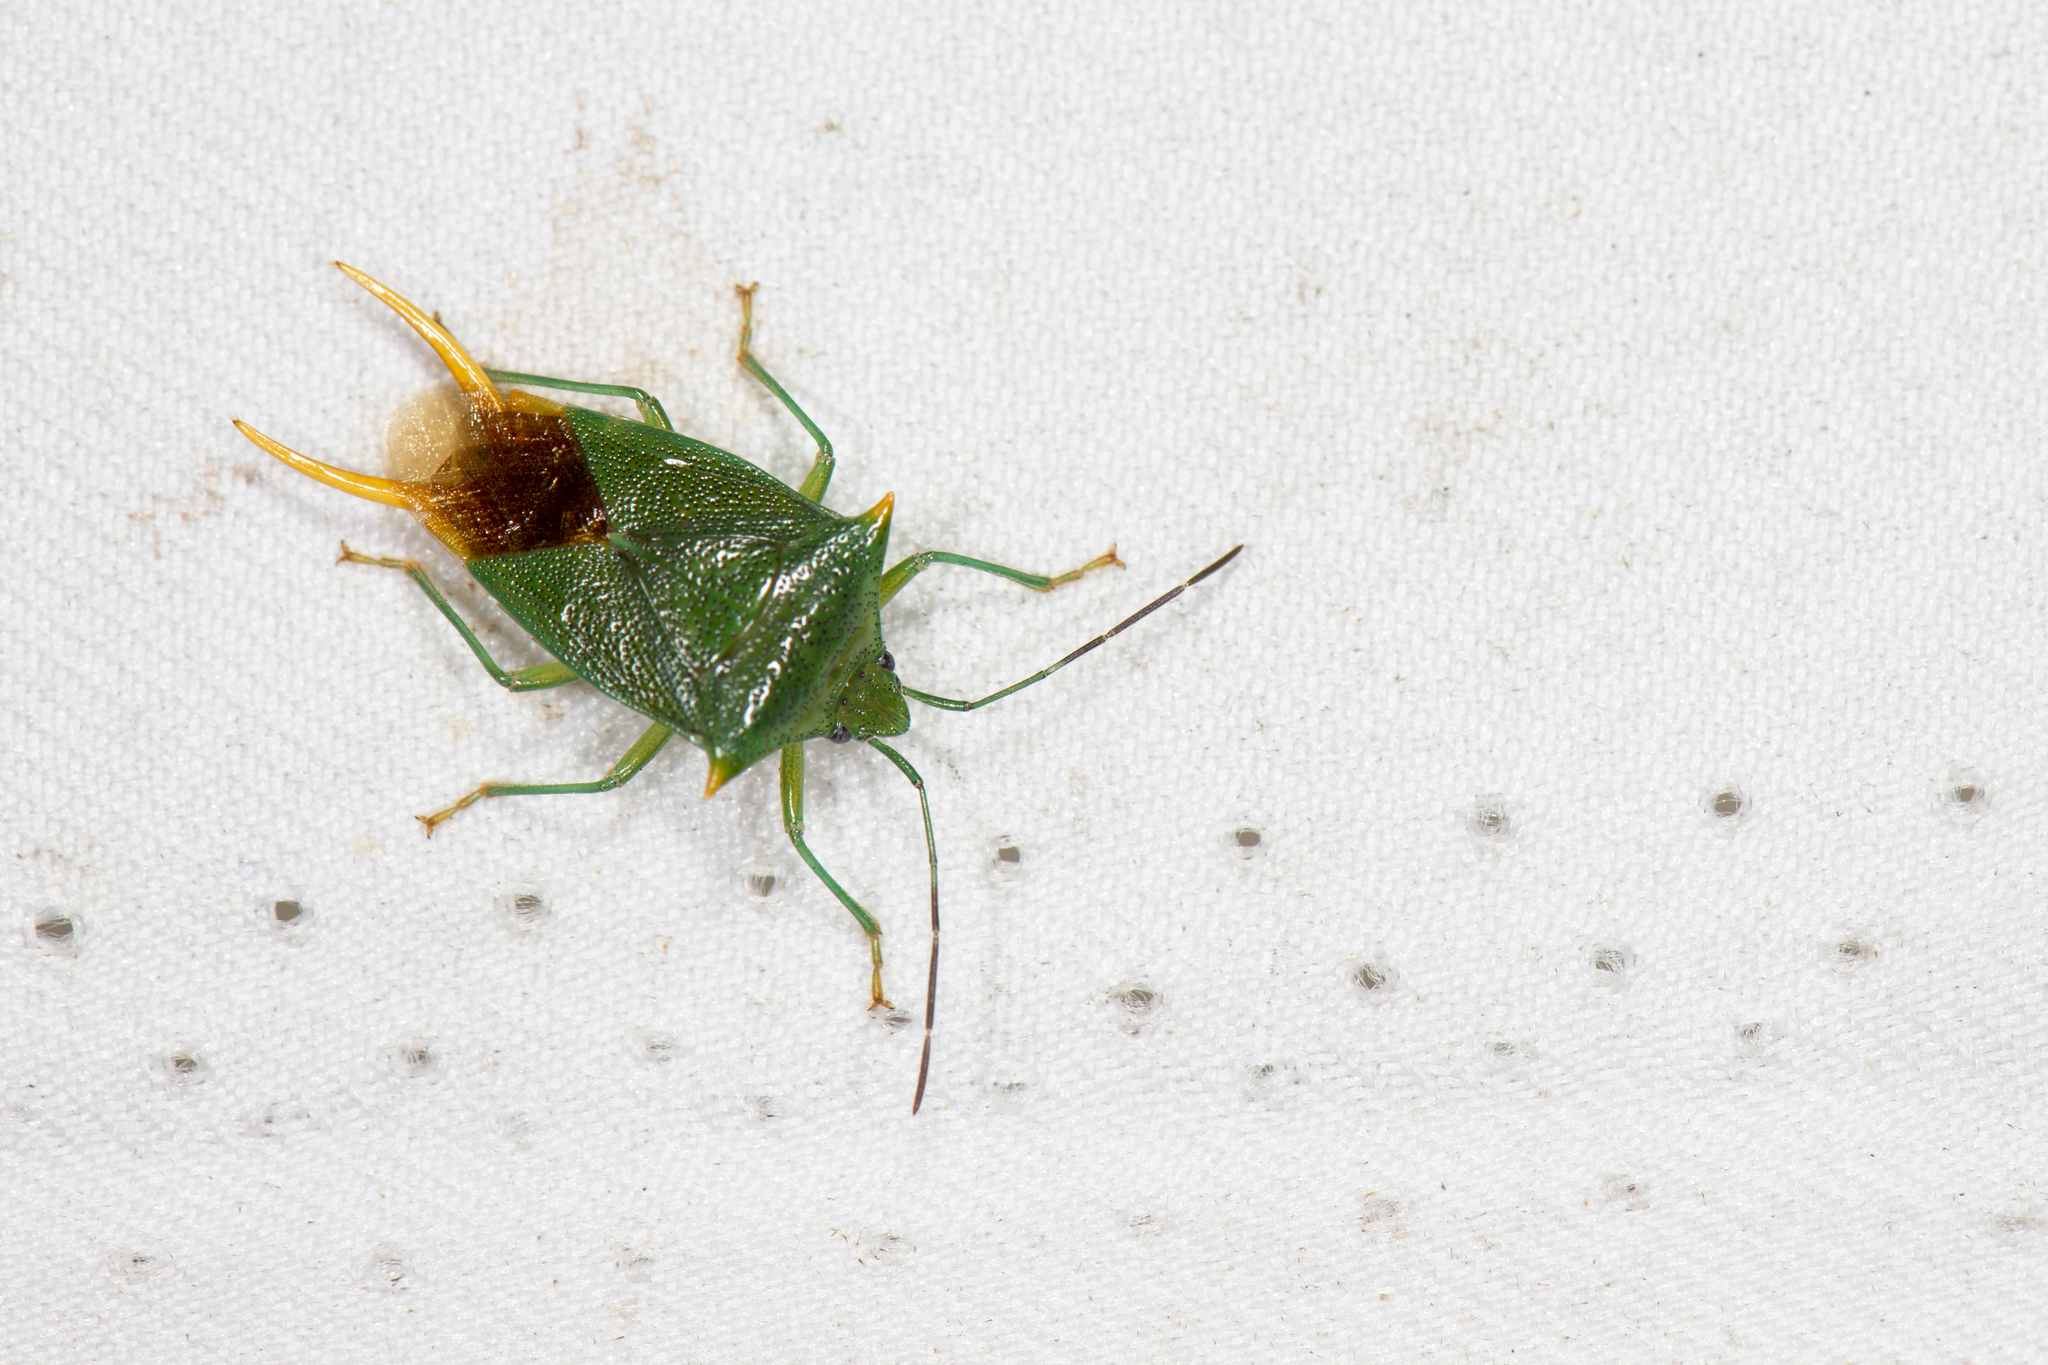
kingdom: Animalia
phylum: Arthropoda
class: Insecta
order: Hemiptera
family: Acanthosomatidae
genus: Acanthosoma
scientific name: Acanthosoma
